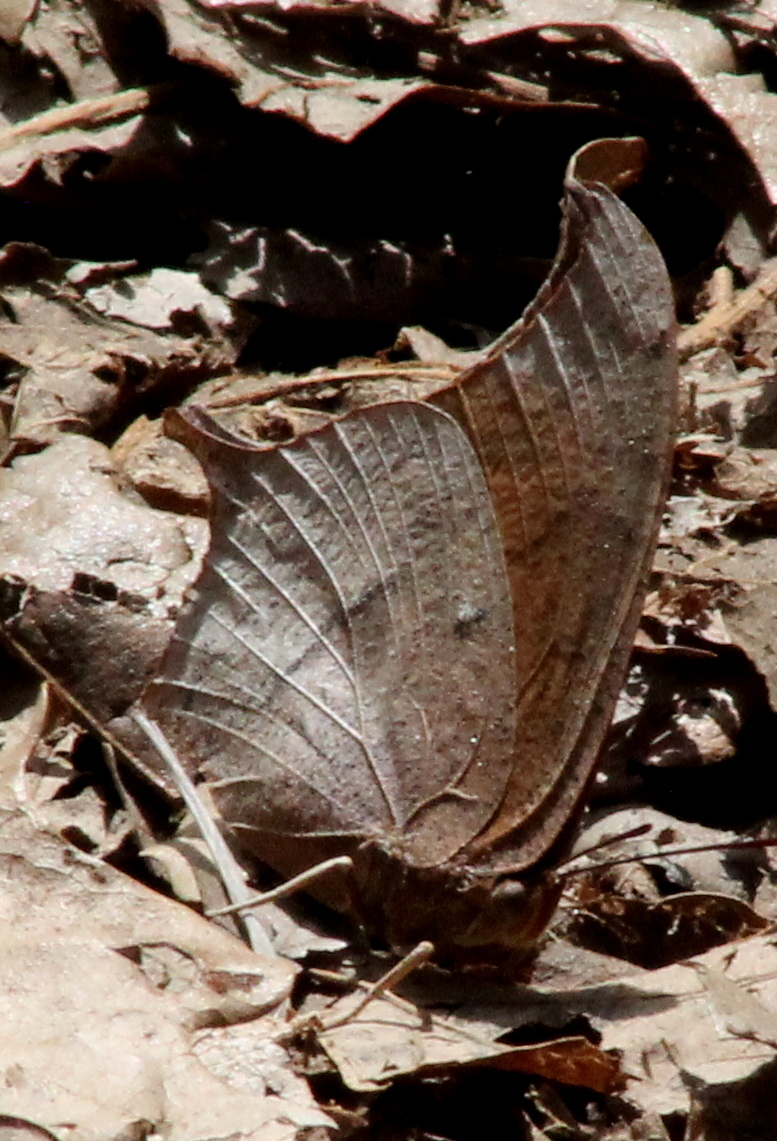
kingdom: Animalia
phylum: Arthropoda
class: Insecta
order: Lepidoptera
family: Nymphalidae
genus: Anaea
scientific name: Anaea andria
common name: Goatweed leafwing
